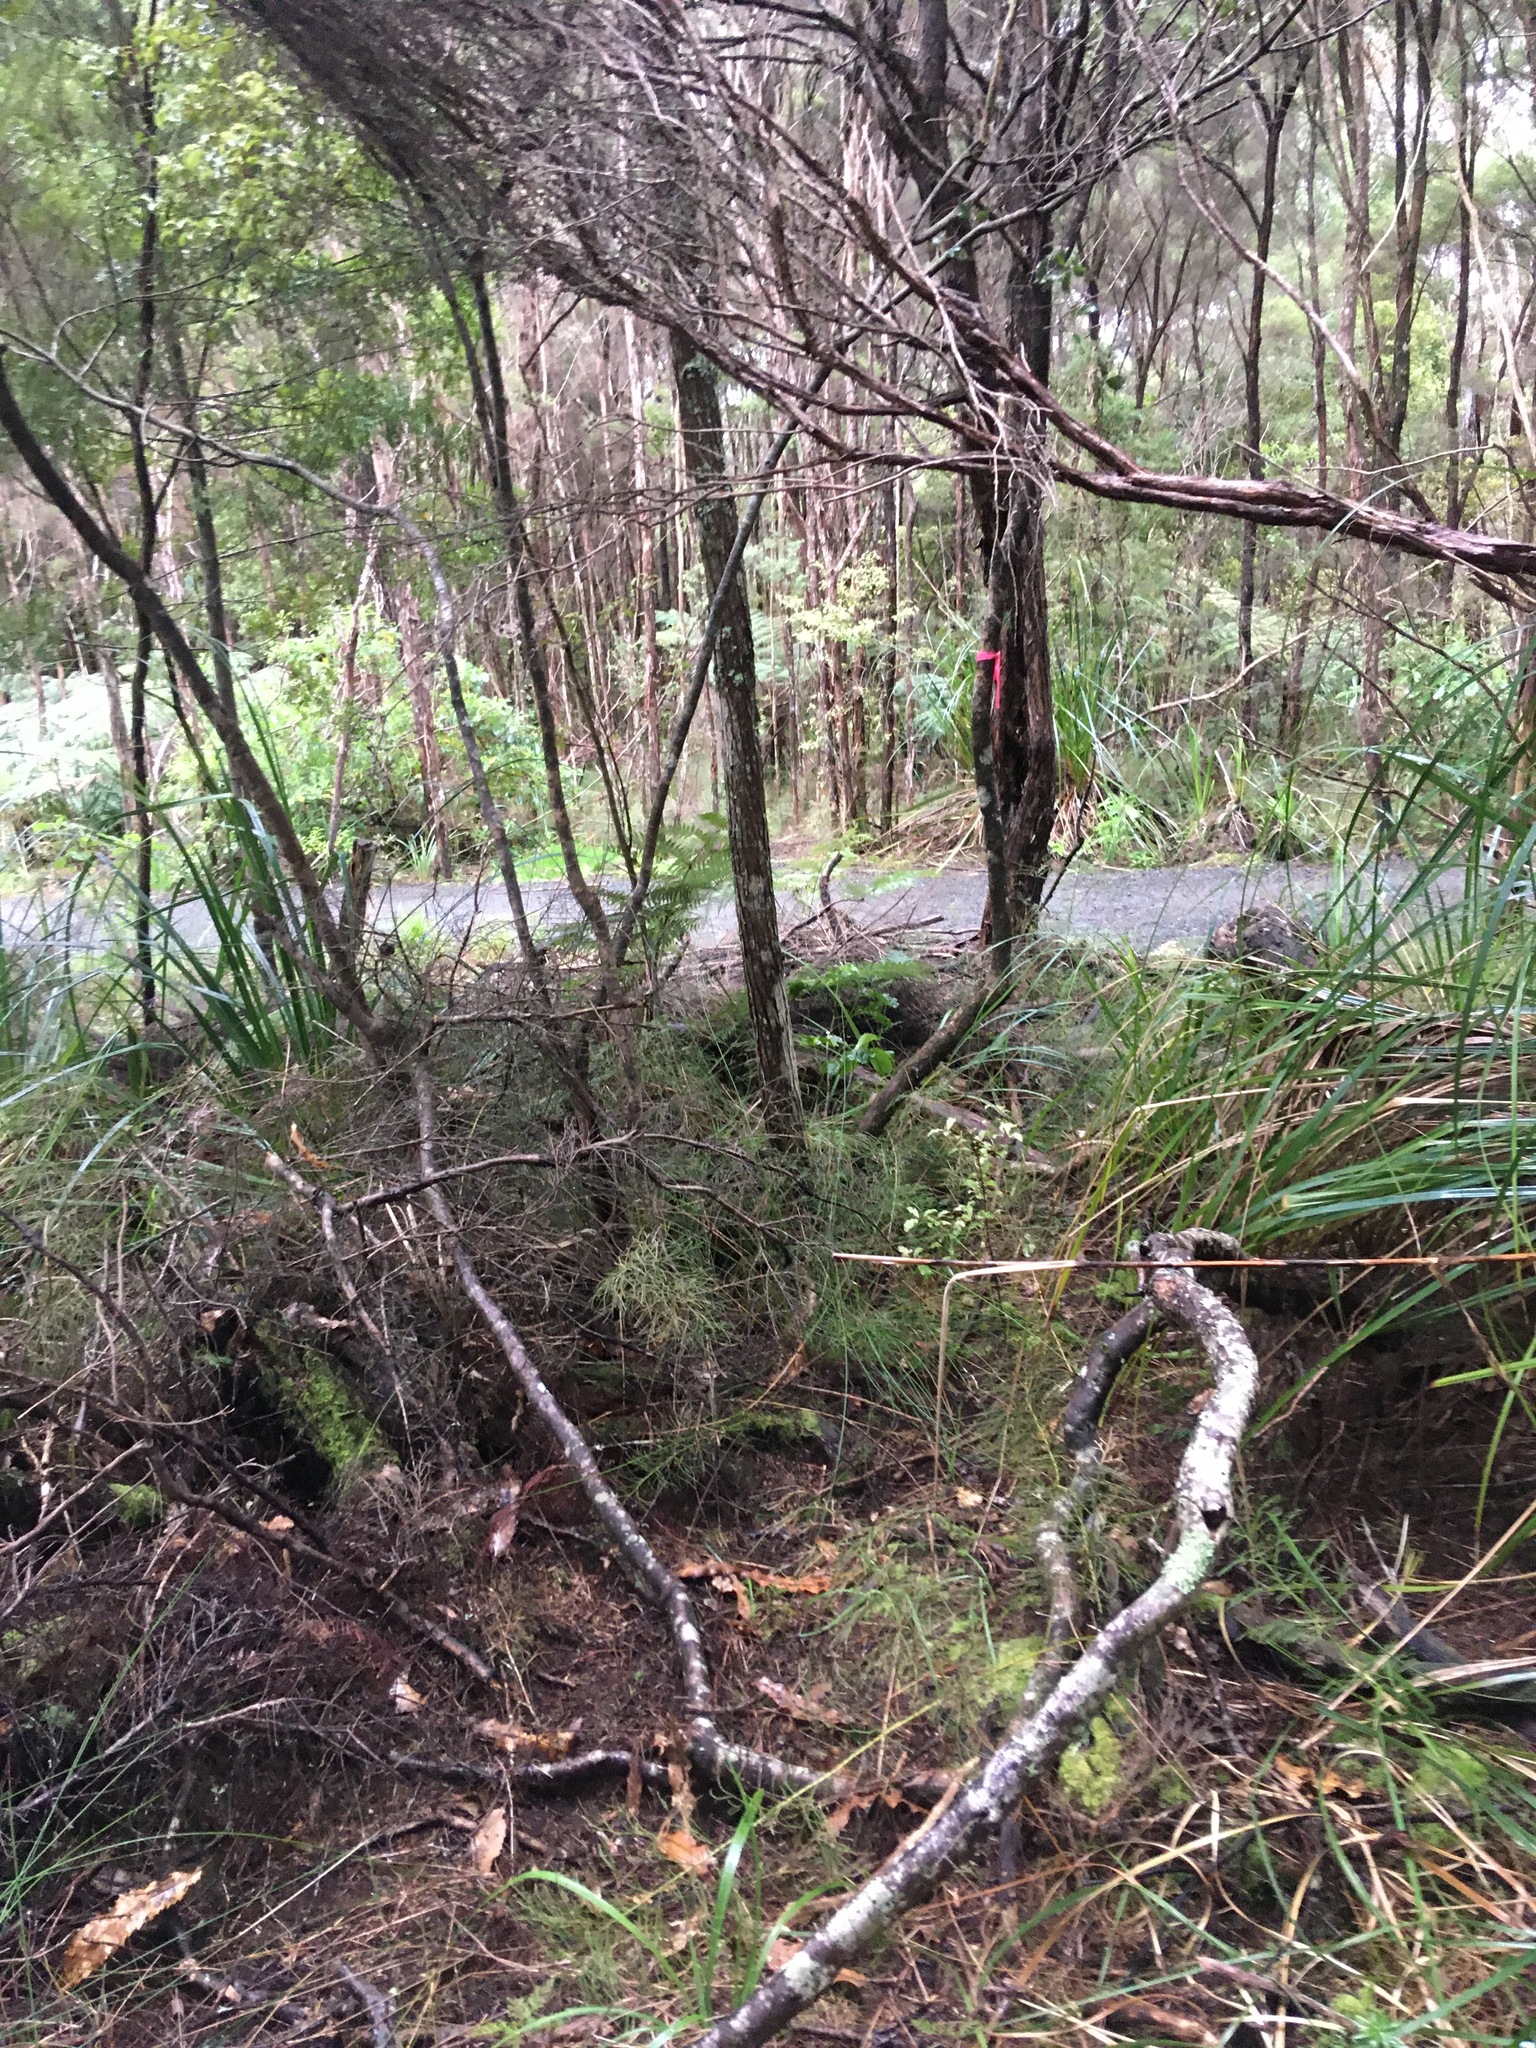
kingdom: Plantae
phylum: Tracheophyta
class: Magnoliopsida
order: Sapindales
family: Simaroubaceae
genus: Ailanthus
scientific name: Ailanthus altissima
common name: Tree-of-heaven
